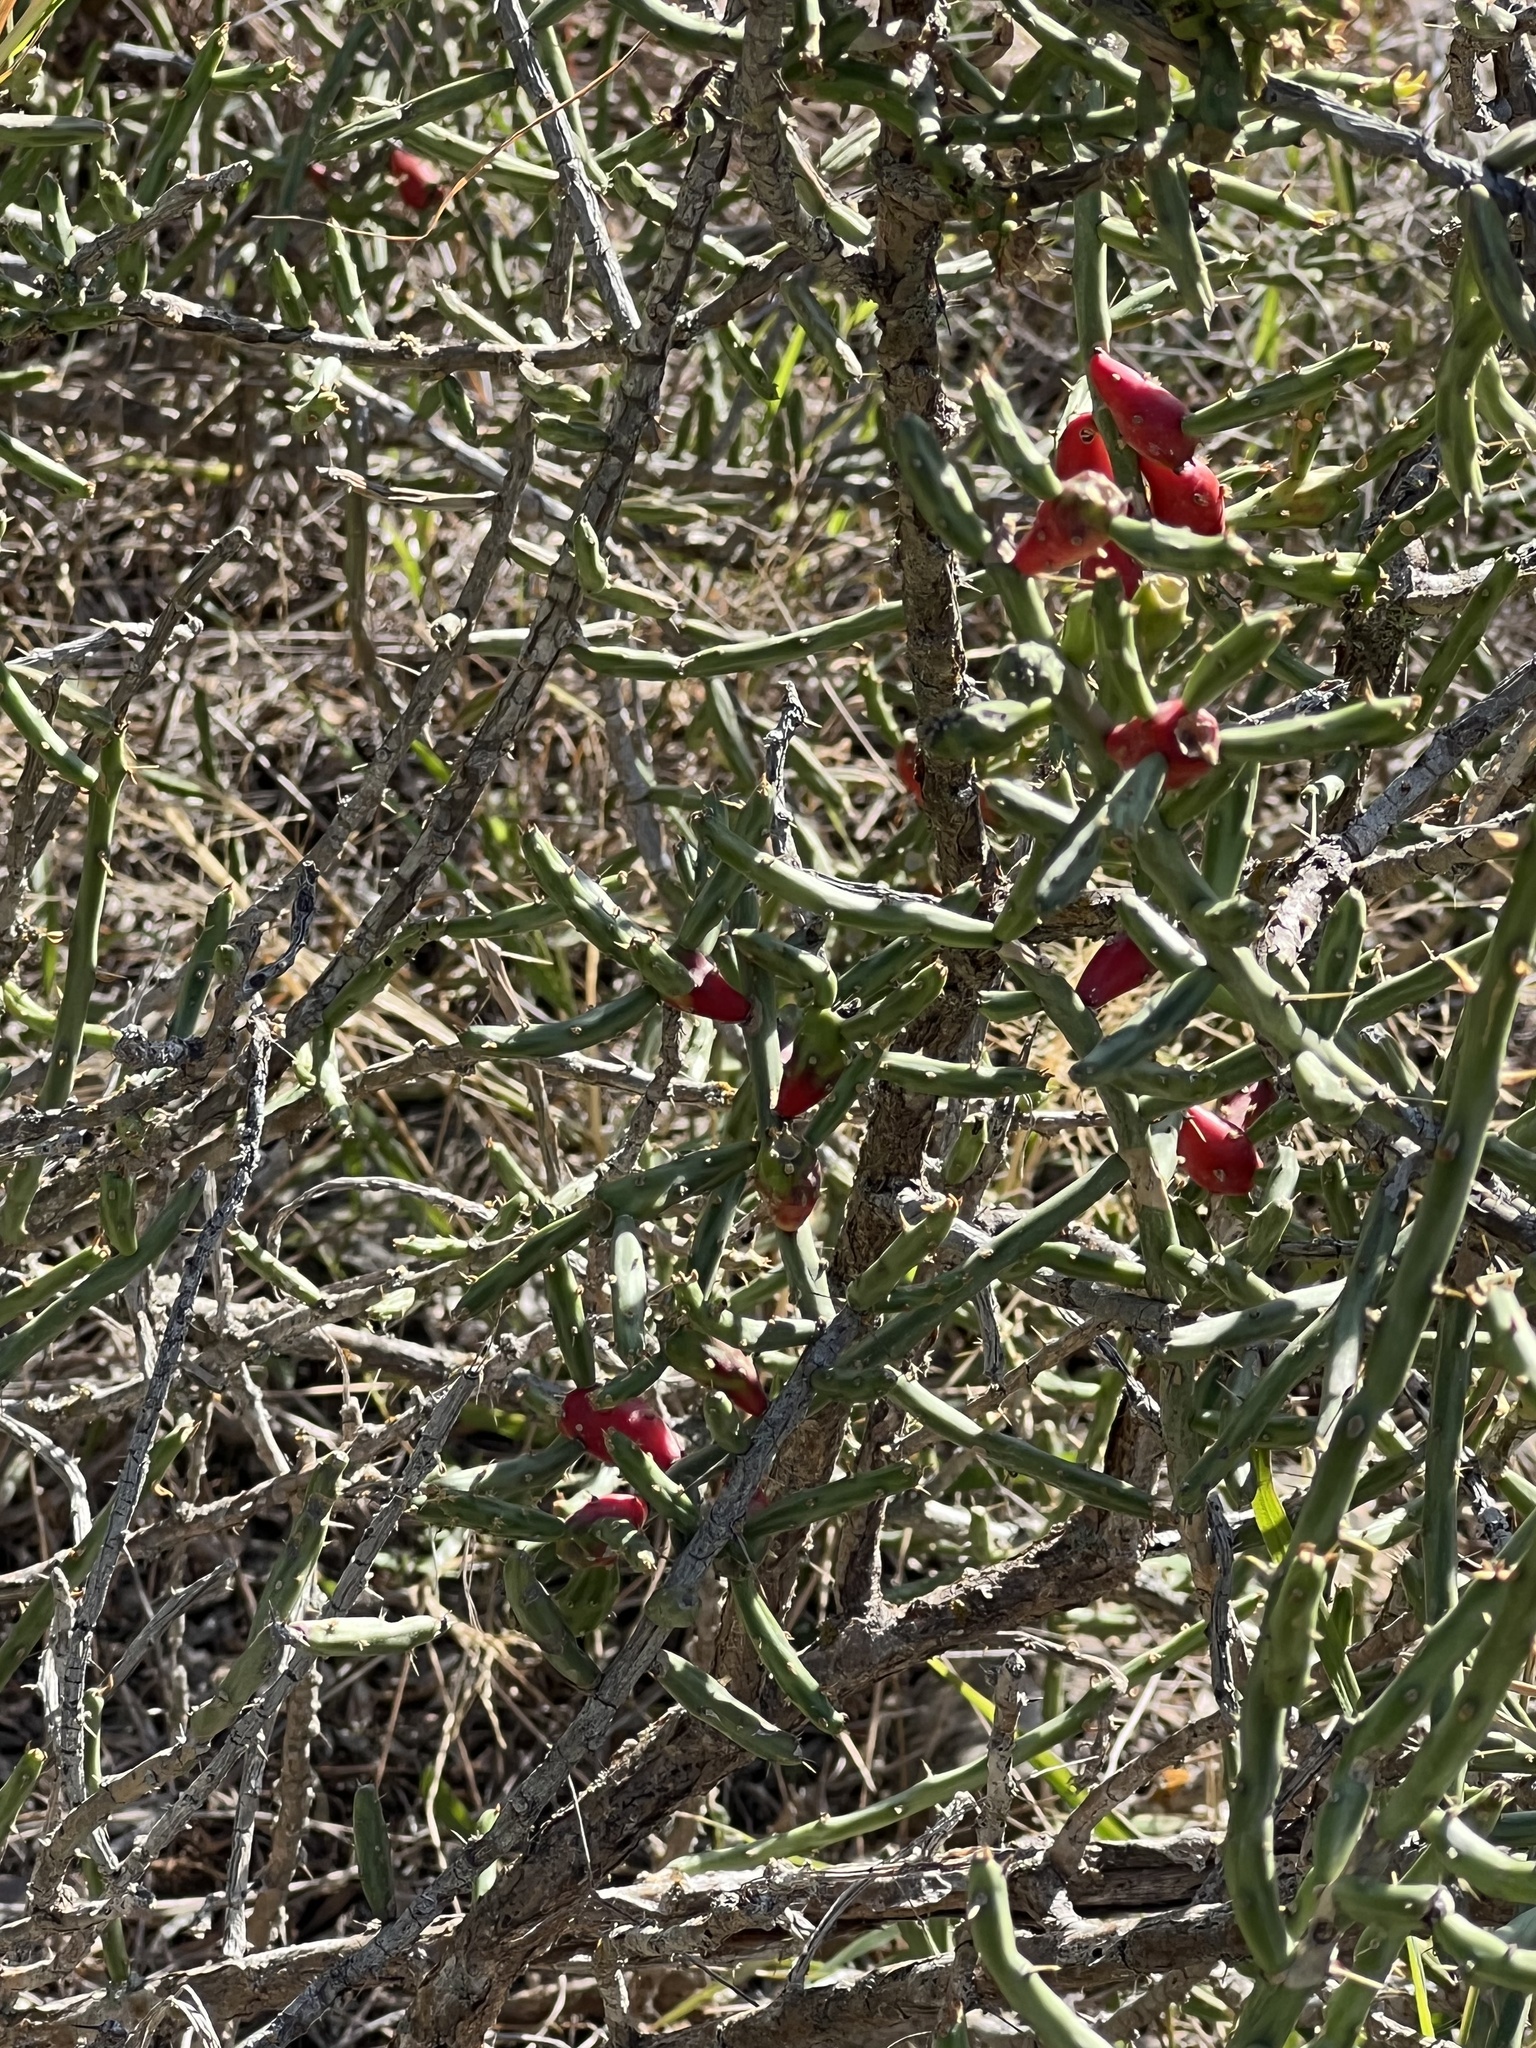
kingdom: Plantae
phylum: Tracheophyta
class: Magnoliopsida
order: Caryophyllales
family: Cactaceae
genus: Cylindropuntia
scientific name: Cylindropuntia leptocaulis
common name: Christmas cactus
